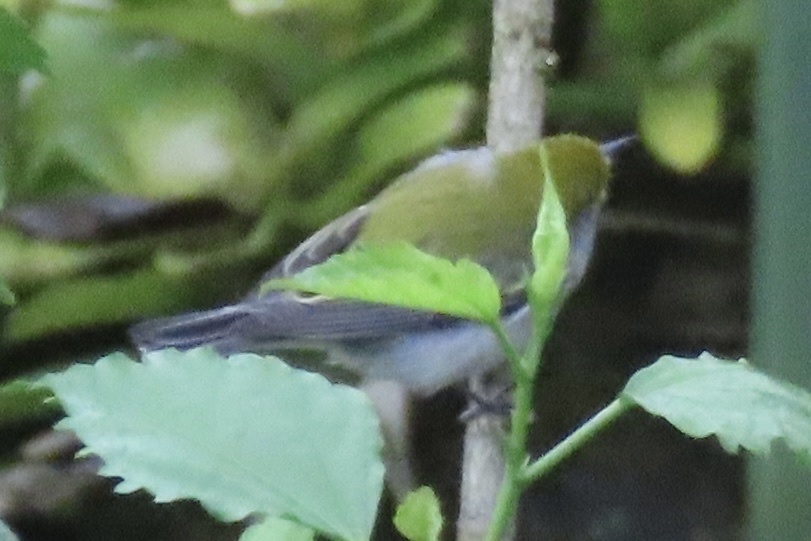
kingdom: Animalia
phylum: Chordata
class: Aves
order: Passeriformes
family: Parulidae
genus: Setophaga
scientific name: Setophaga pensylvanica
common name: Chestnut-sided warbler
